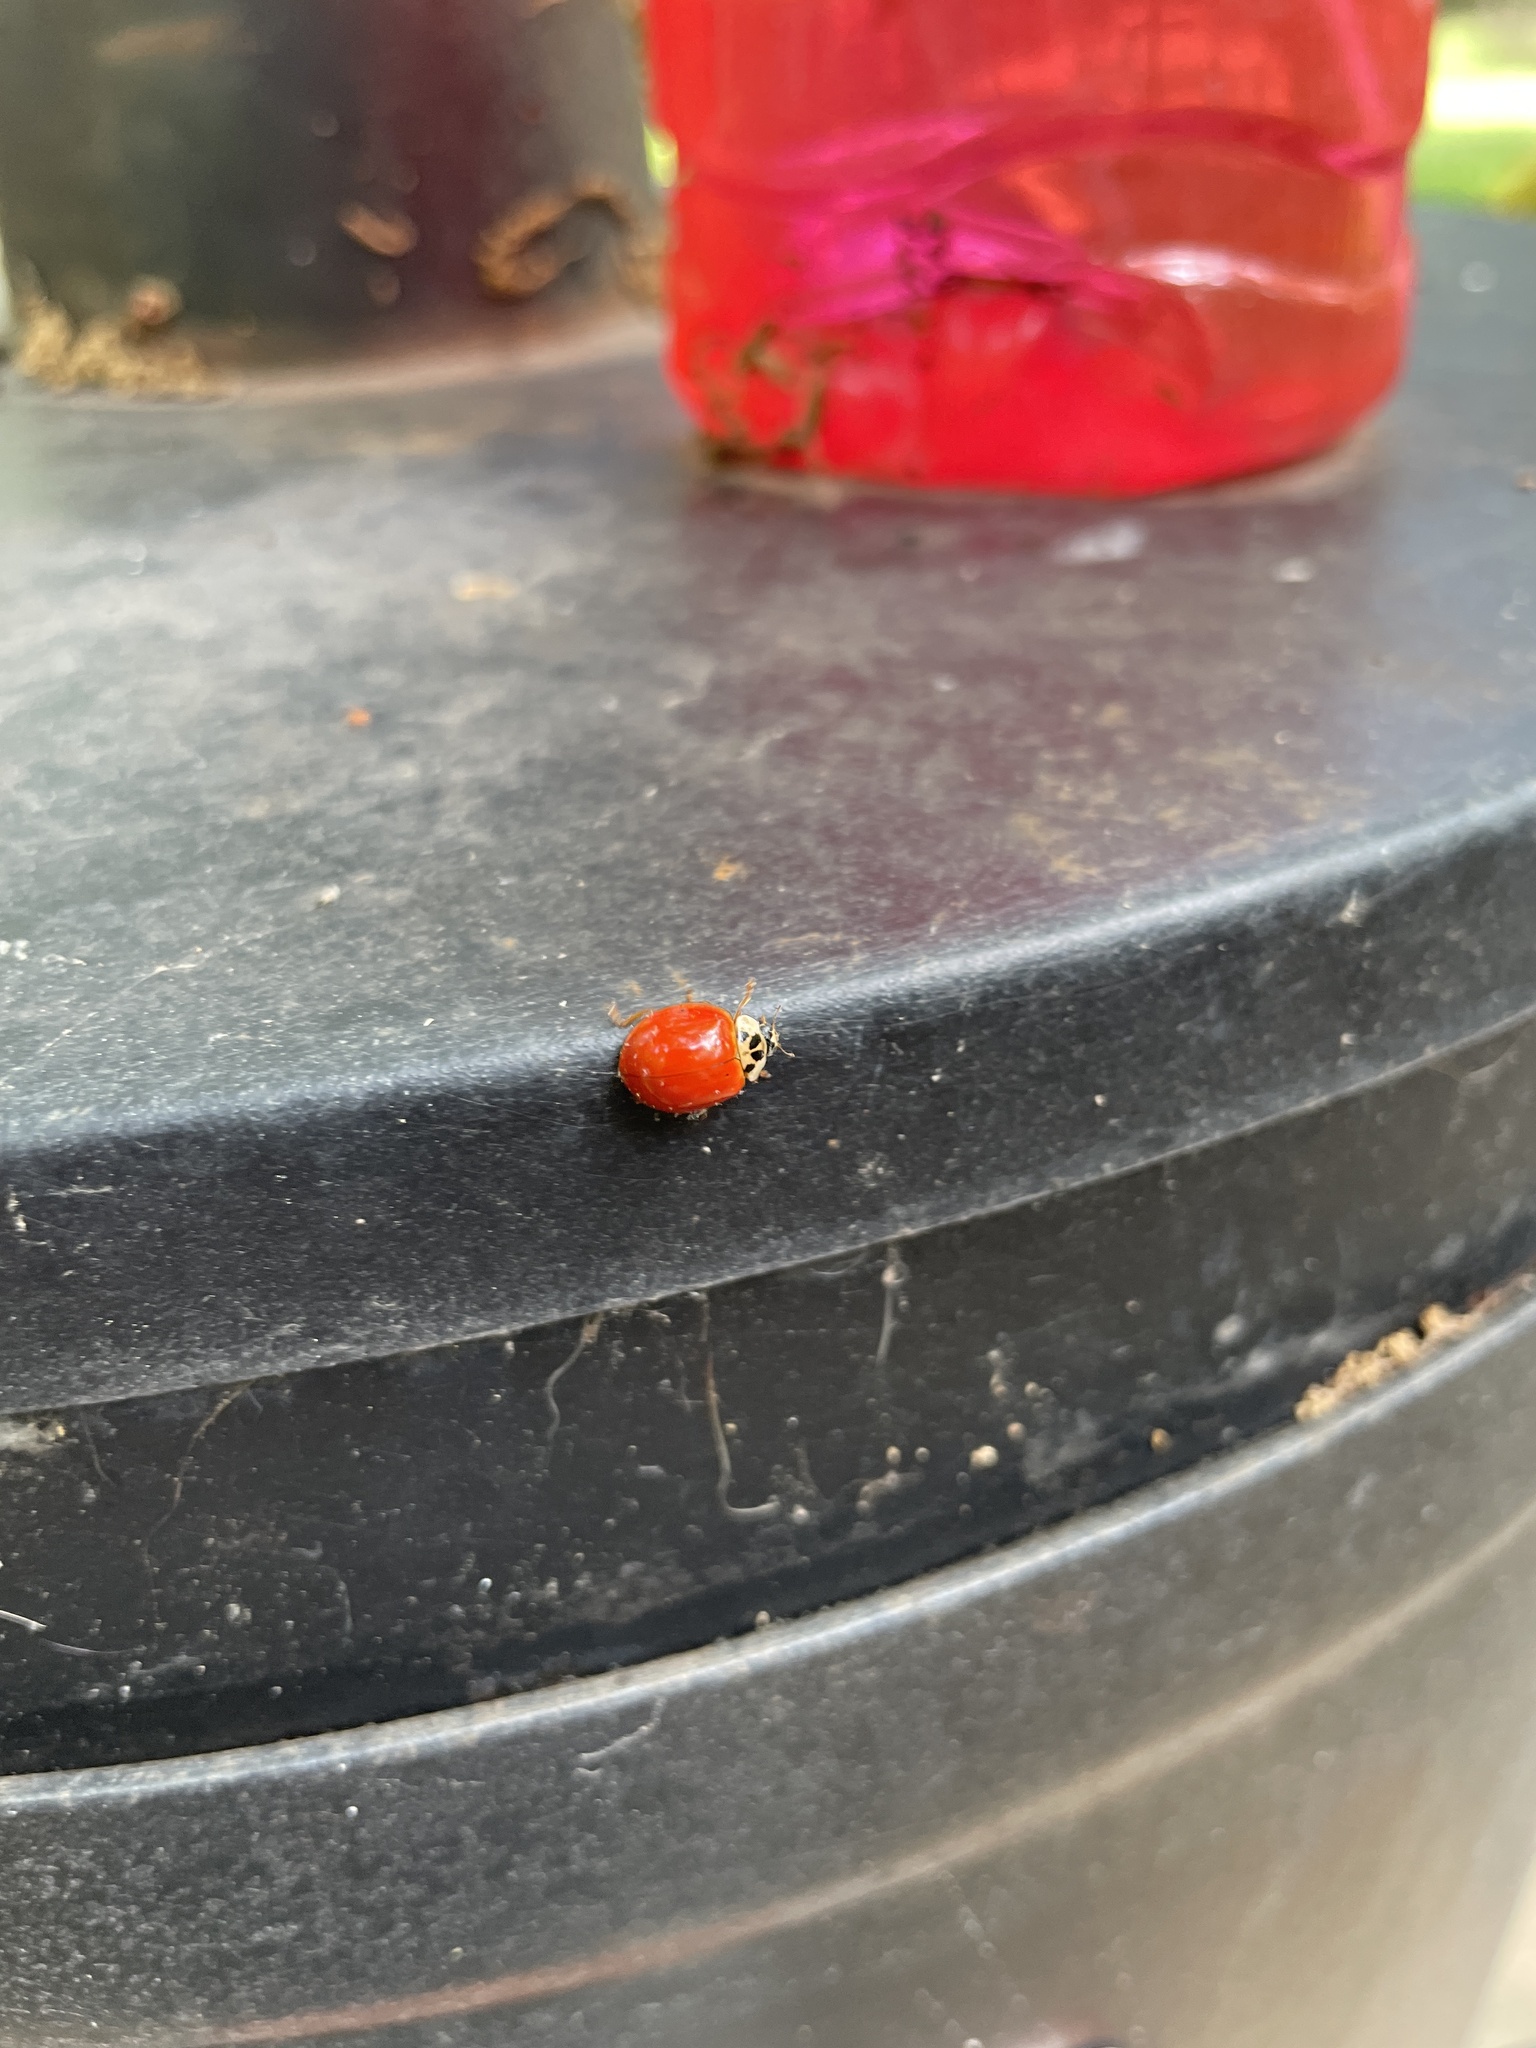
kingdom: Animalia
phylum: Arthropoda
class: Insecta
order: Coleoptera
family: Coccinellidae
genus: Harmonia
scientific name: Harmonia axyridis
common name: Harlequin ladybird
